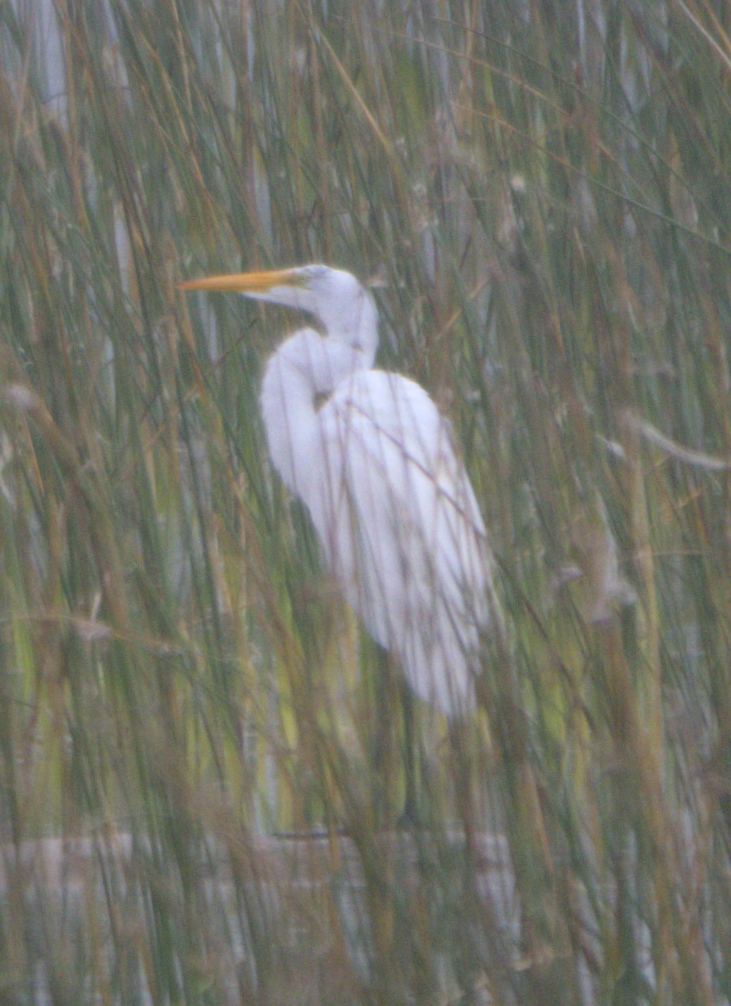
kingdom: Animalia
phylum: Chordata
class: Aves
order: Pelecaniformes
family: Ardeidae
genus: Ardea
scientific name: Ardea alba
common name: Great egret
